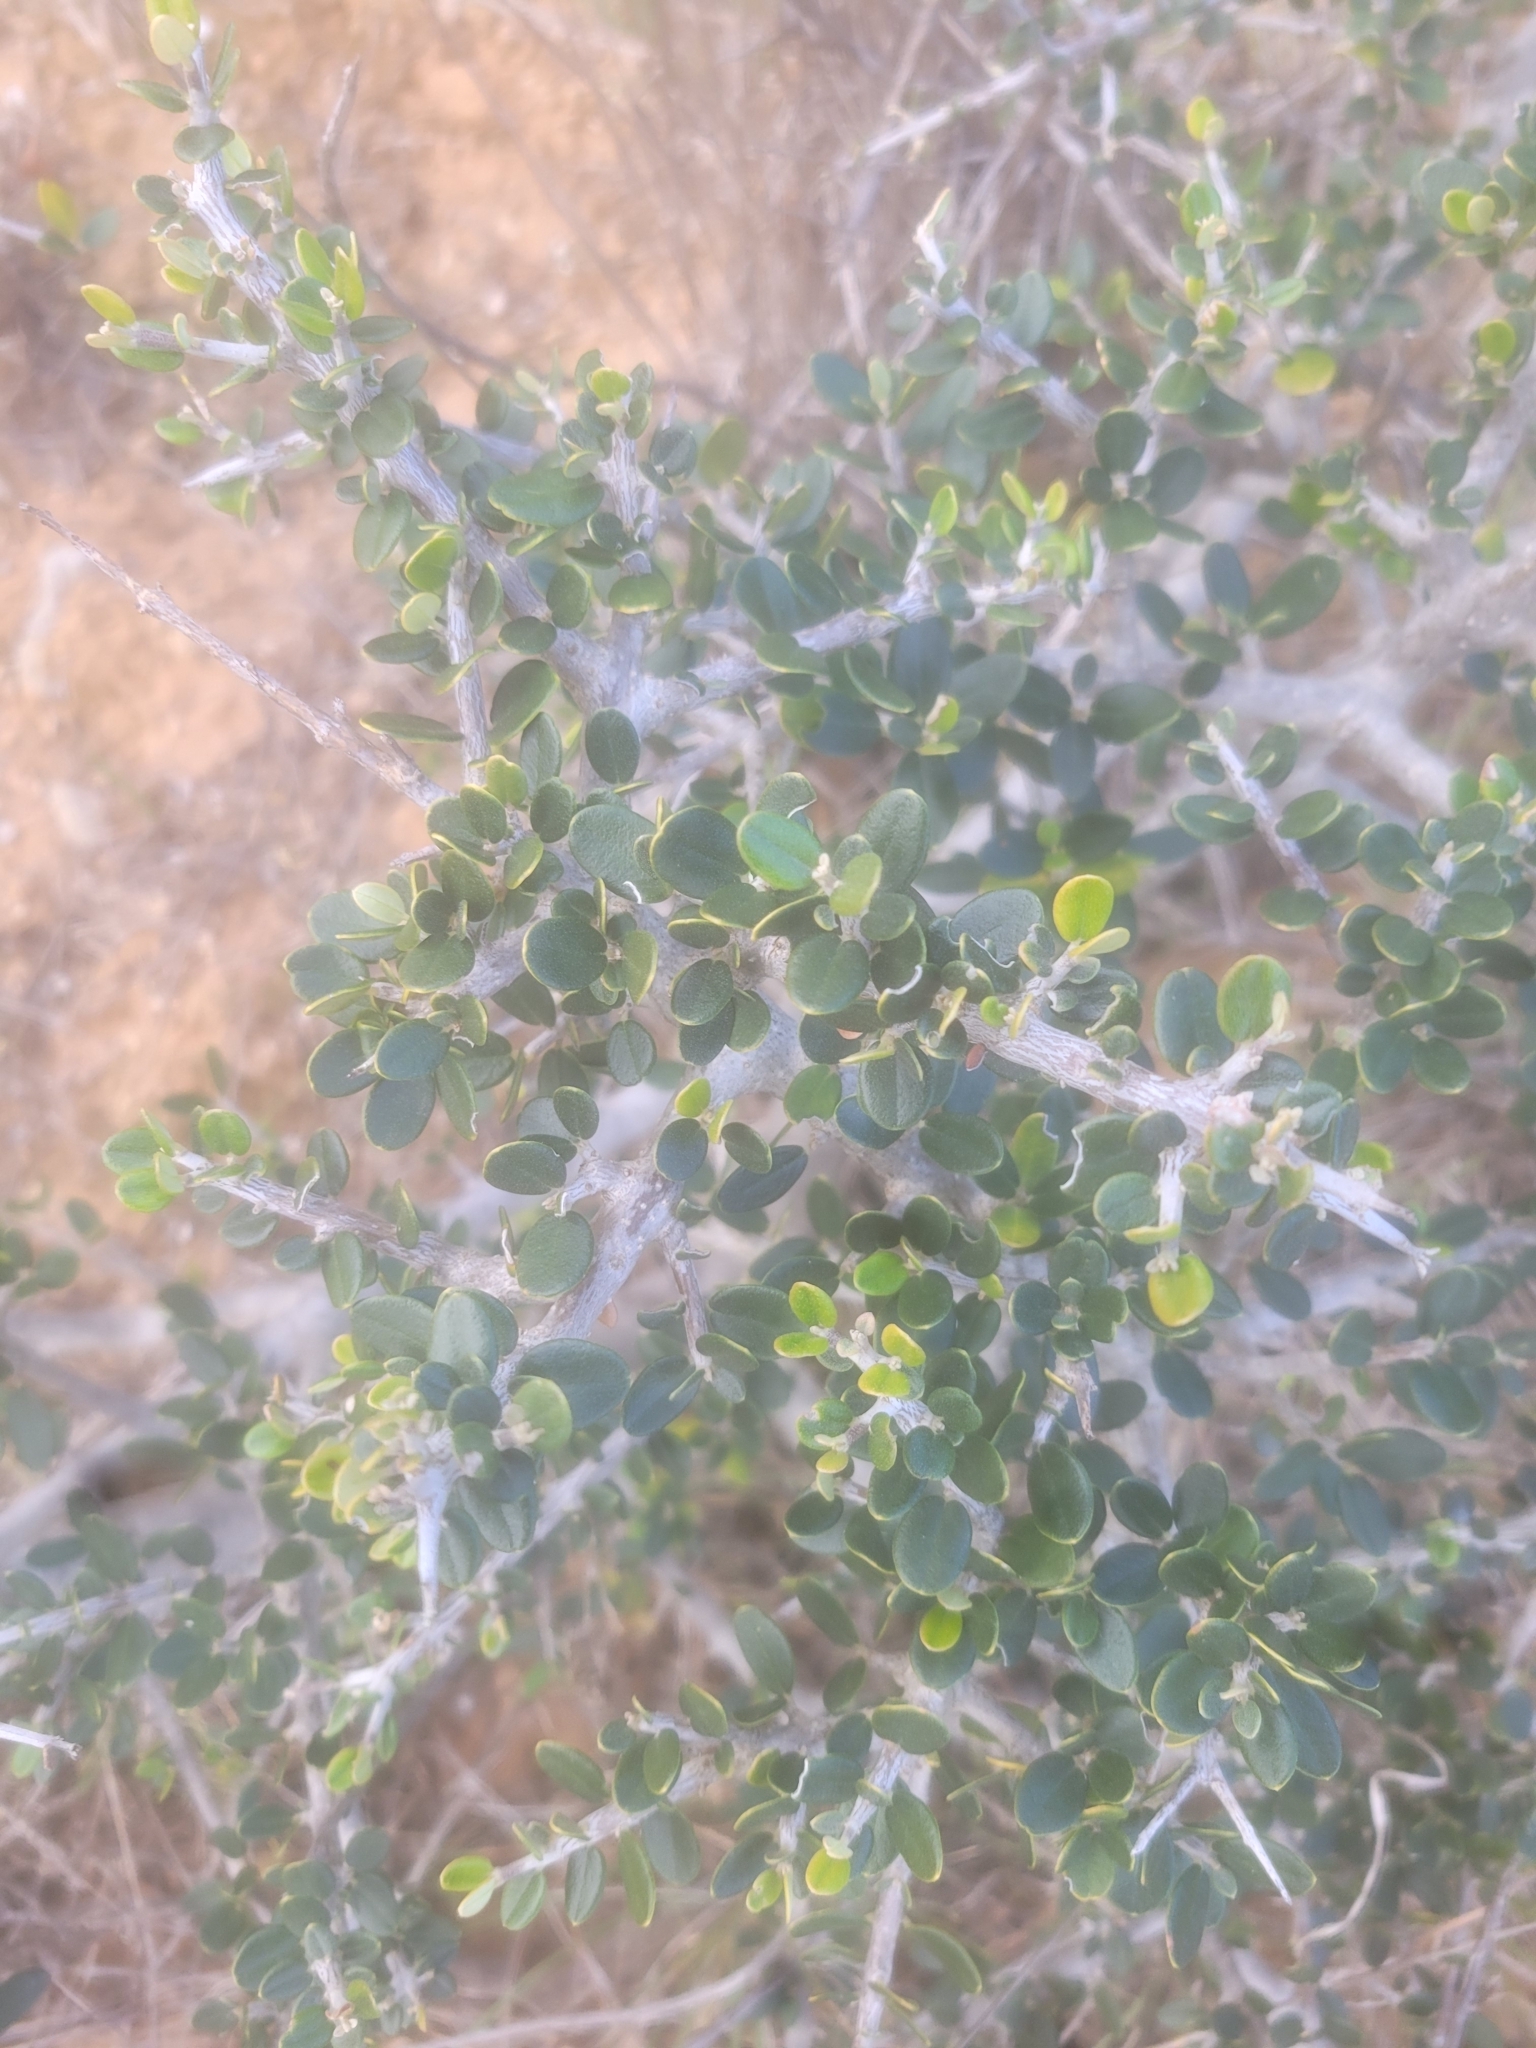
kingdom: Plantae
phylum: Tracheophyta
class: Magnoliopsida
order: Lamiales
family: Oleaceae
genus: Olea
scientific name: Olea europaea
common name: Olive
